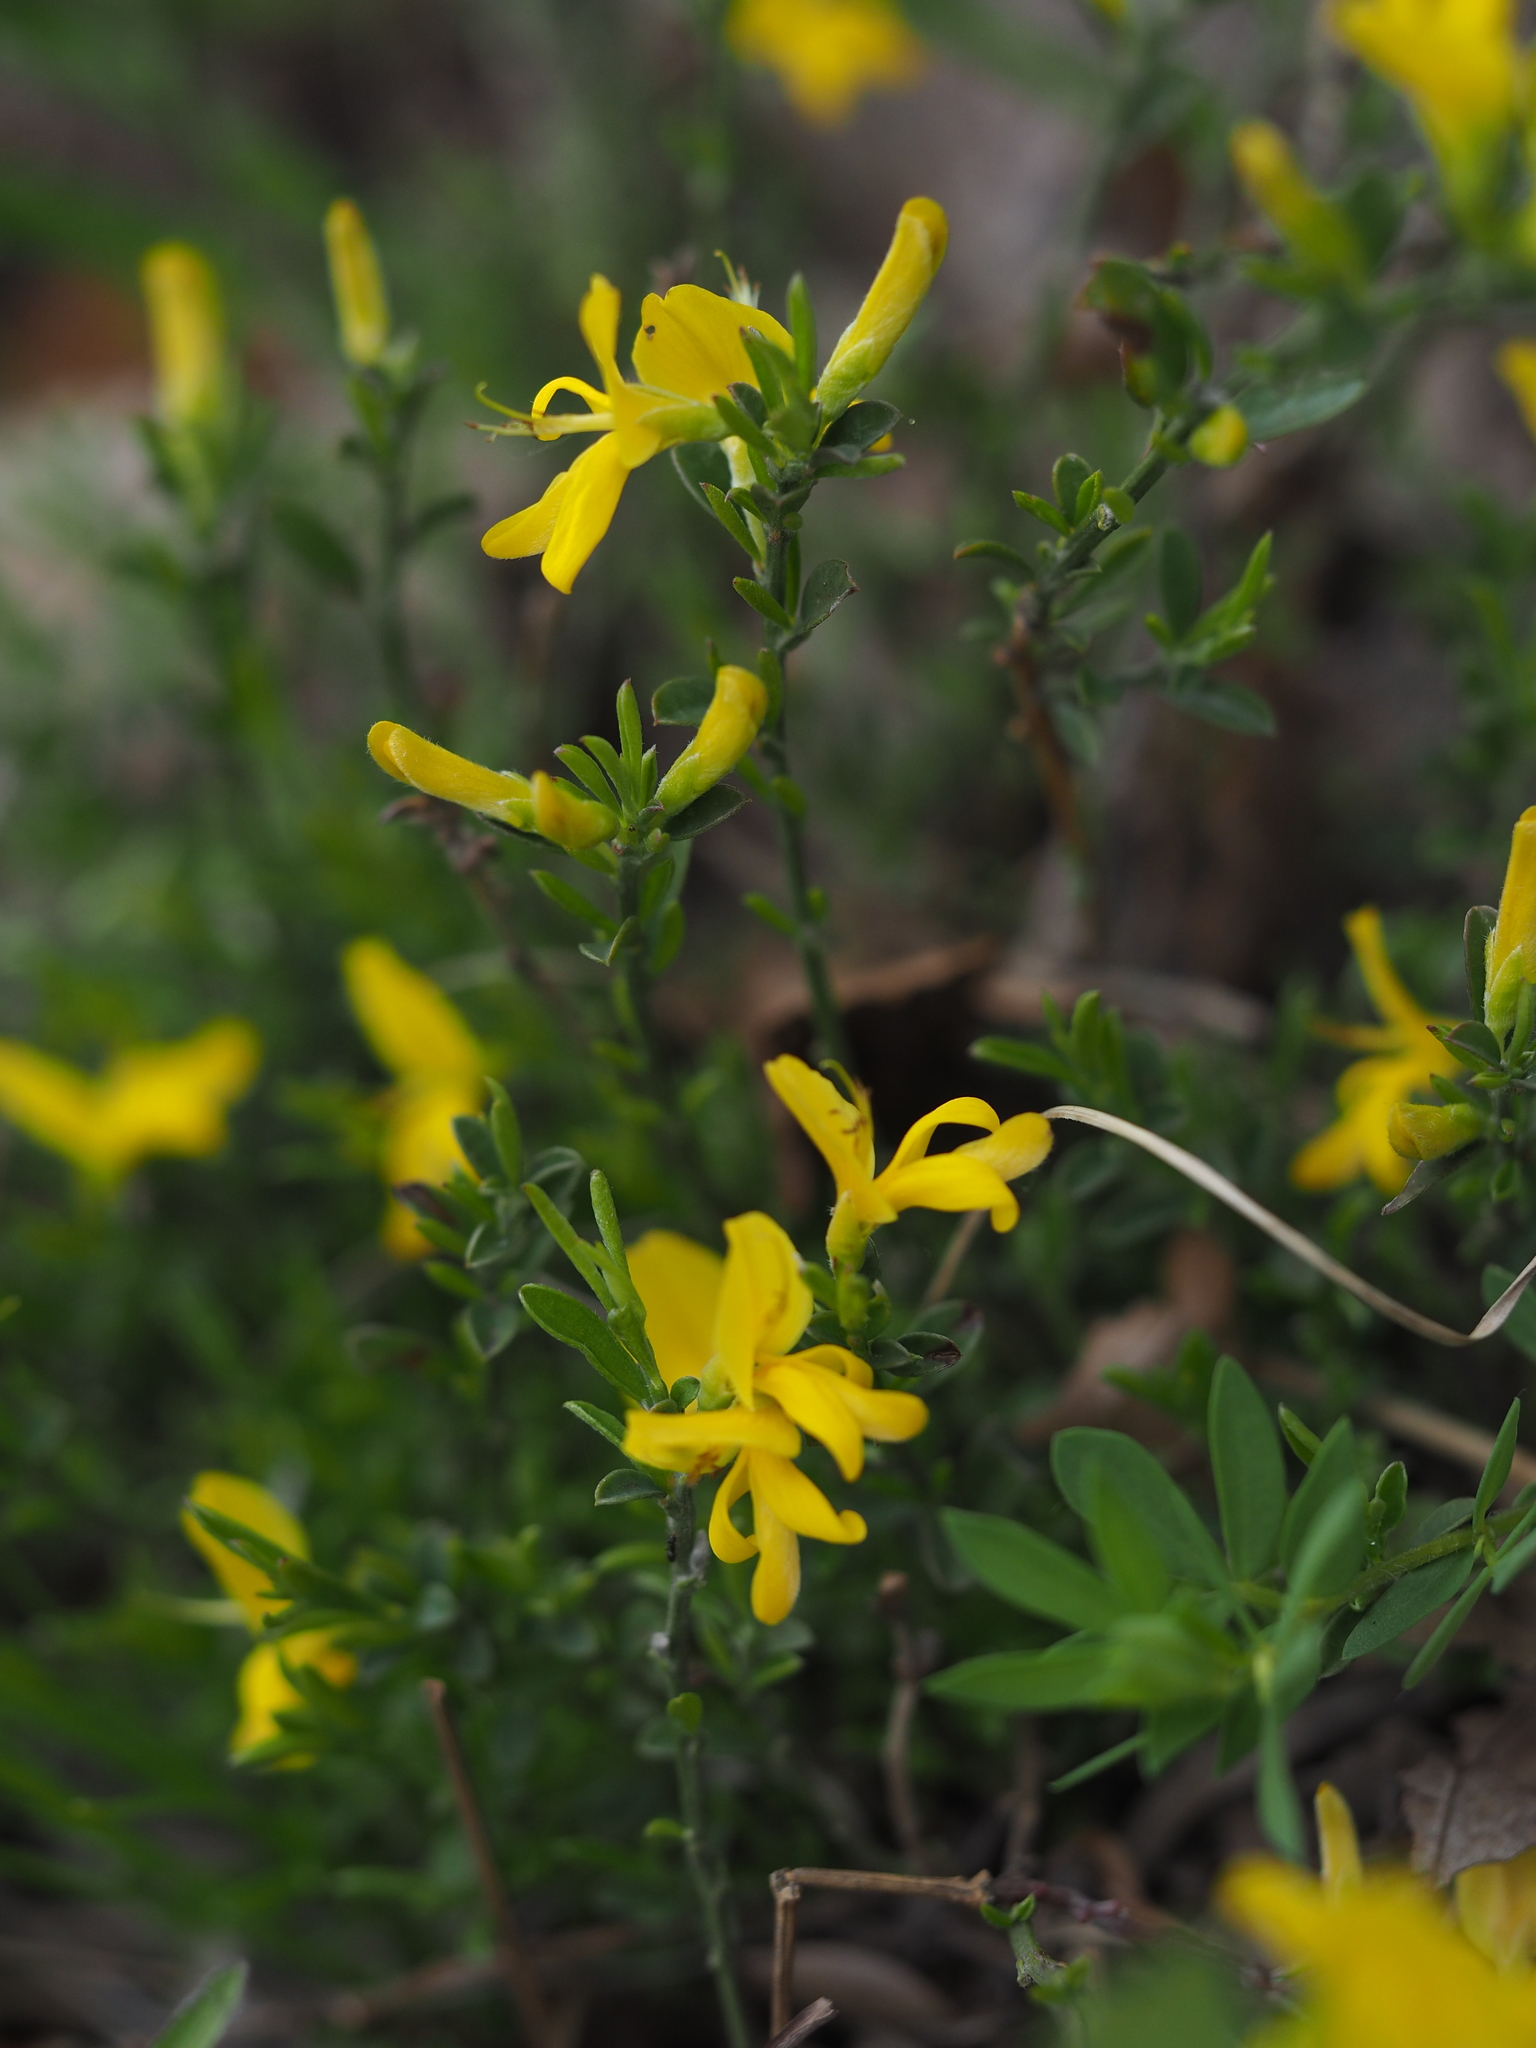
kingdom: Plantae
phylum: Tracheophyta
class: Magnoliopsida
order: Fabales
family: Fabaceae
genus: Genista
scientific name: Genista pilosa
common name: Hairy greenweed
